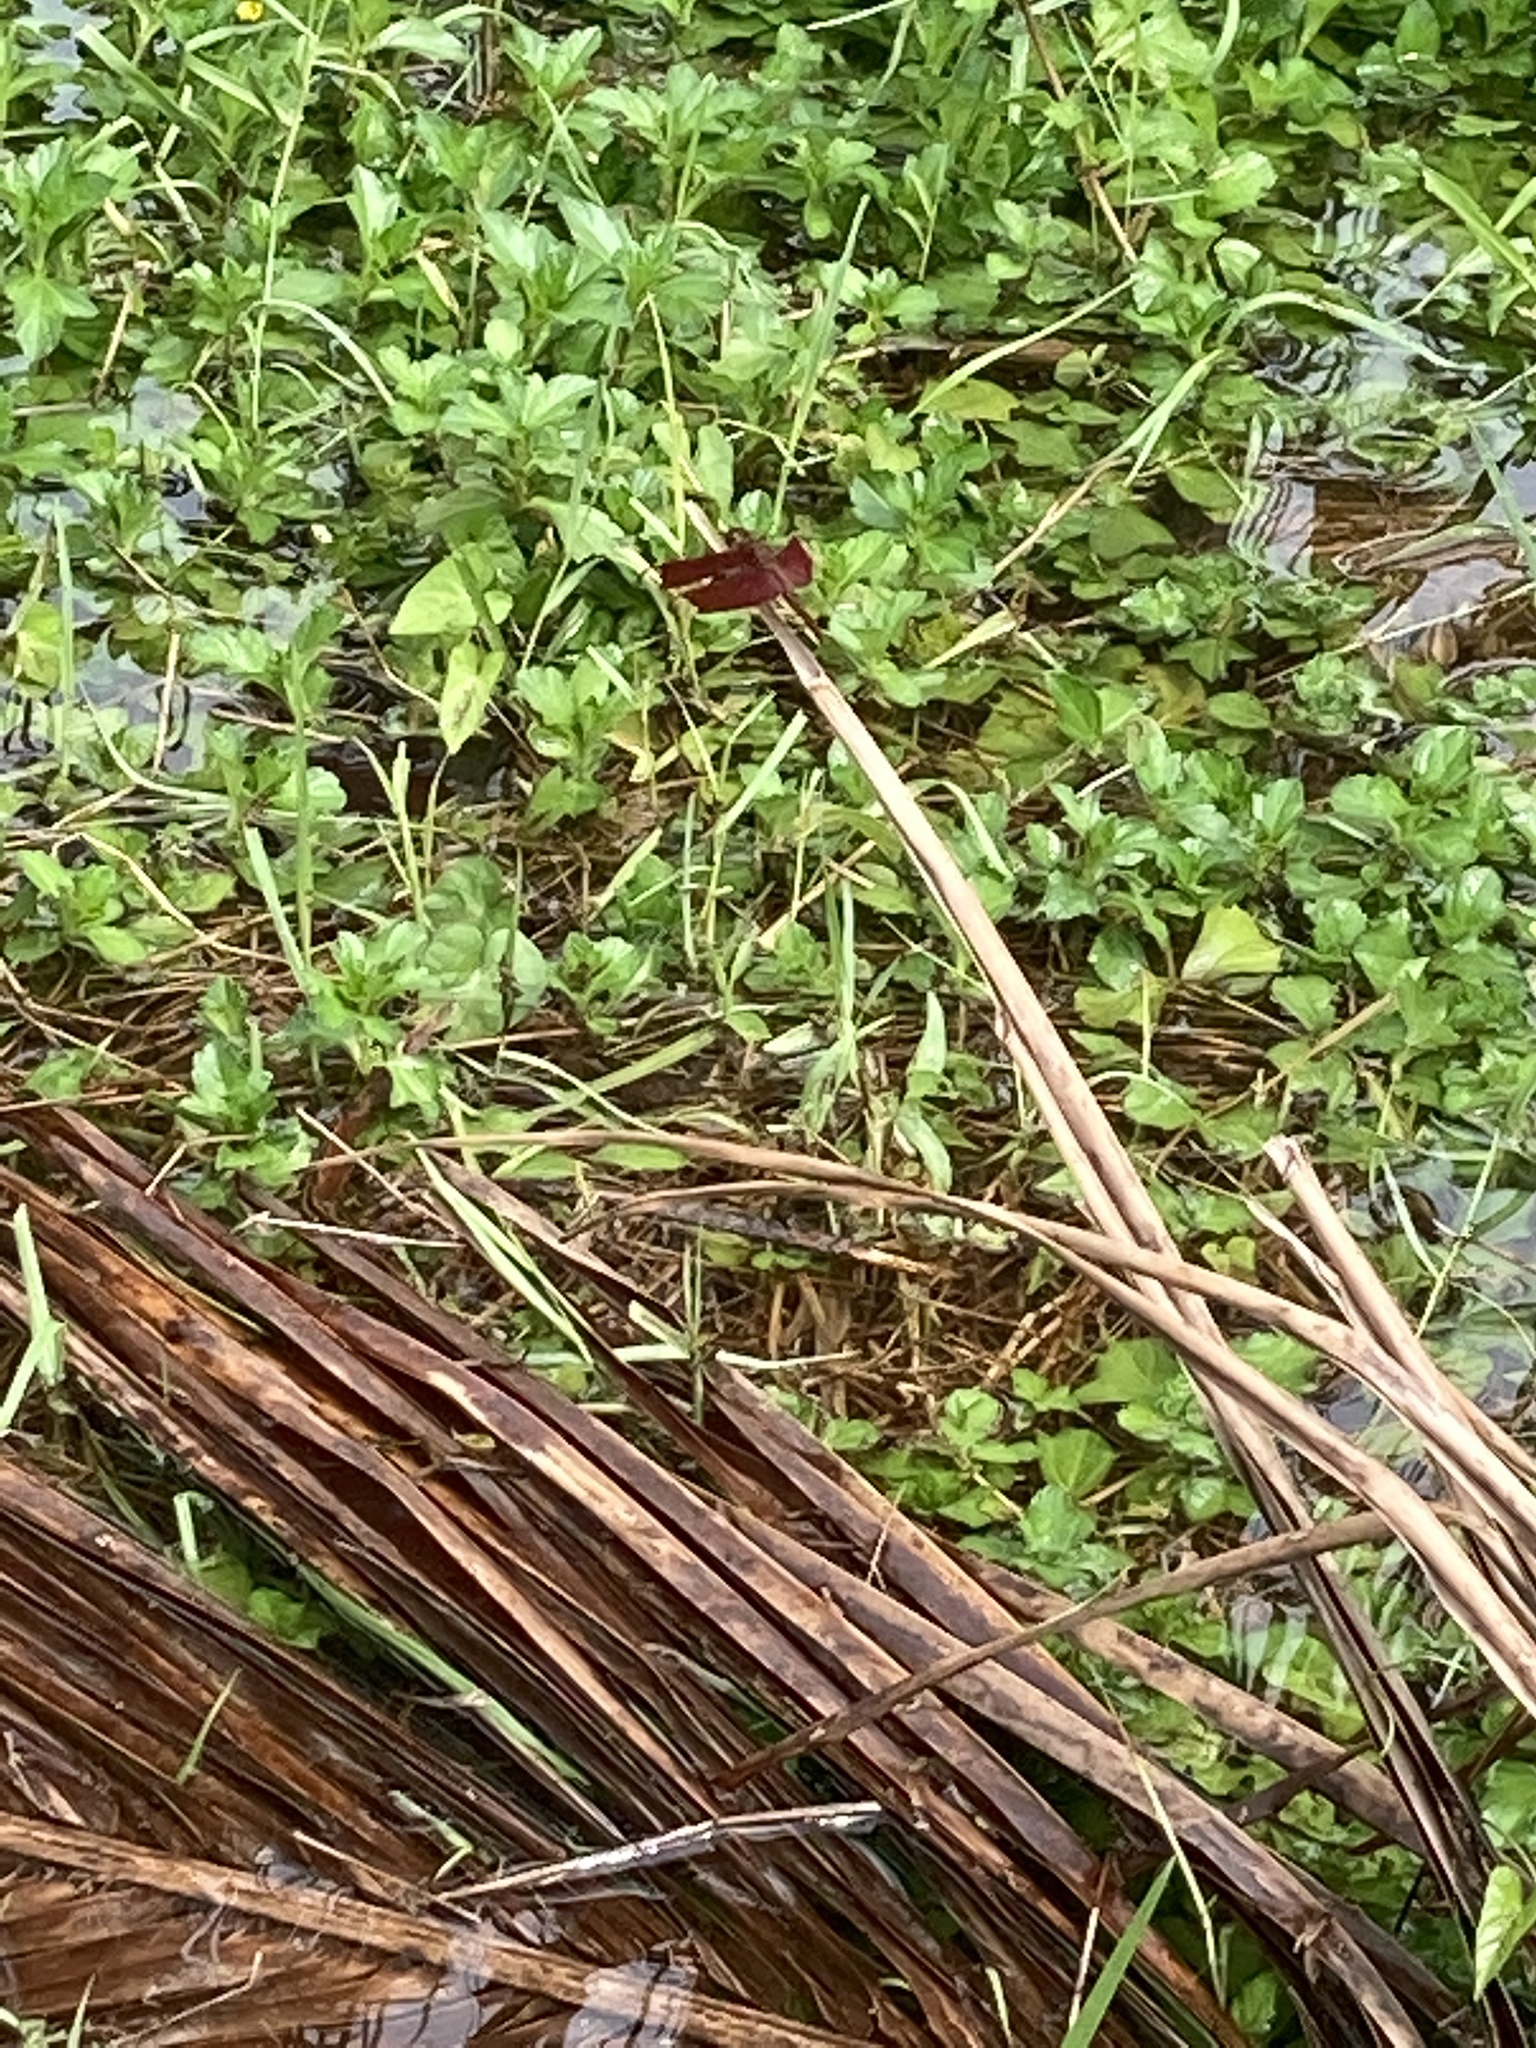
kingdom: Animalia
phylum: Arthropoda
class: Insecta
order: Odonata
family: Libellulidae
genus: Neurothemis
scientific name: Neurothemis fulvia
